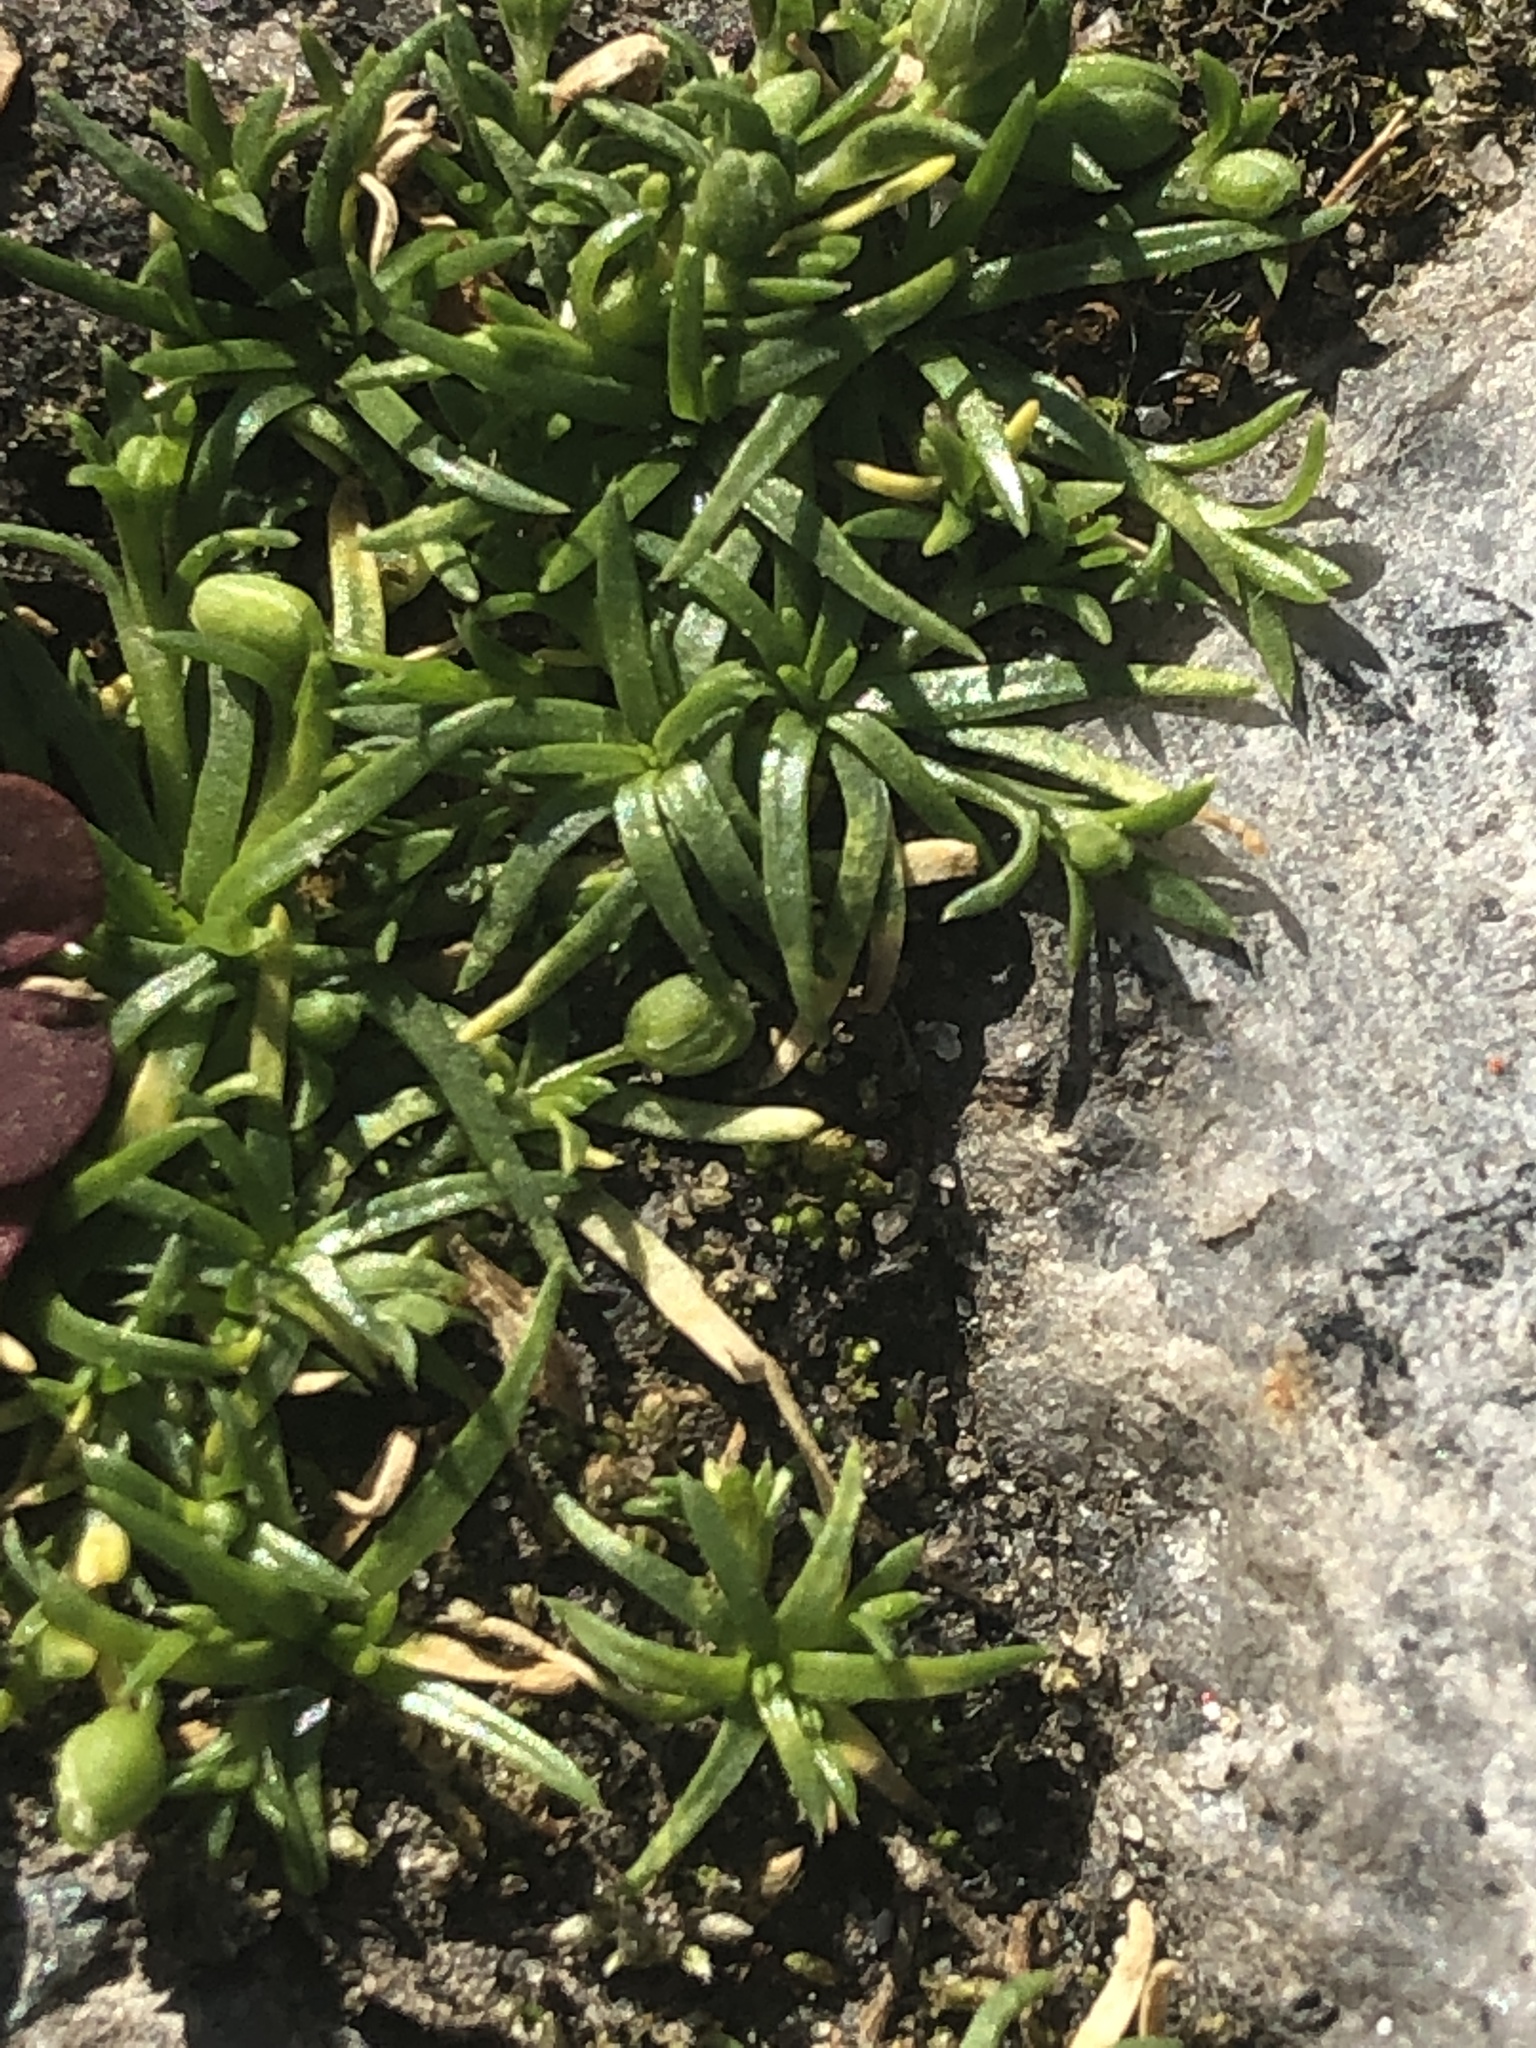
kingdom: Plantae
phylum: Tracheophyta
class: Magnoliopsida
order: Caryophyllales
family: Caryophyllaceae
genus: Sagina
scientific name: Sagina procumbens
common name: Procumbent pearlwort
